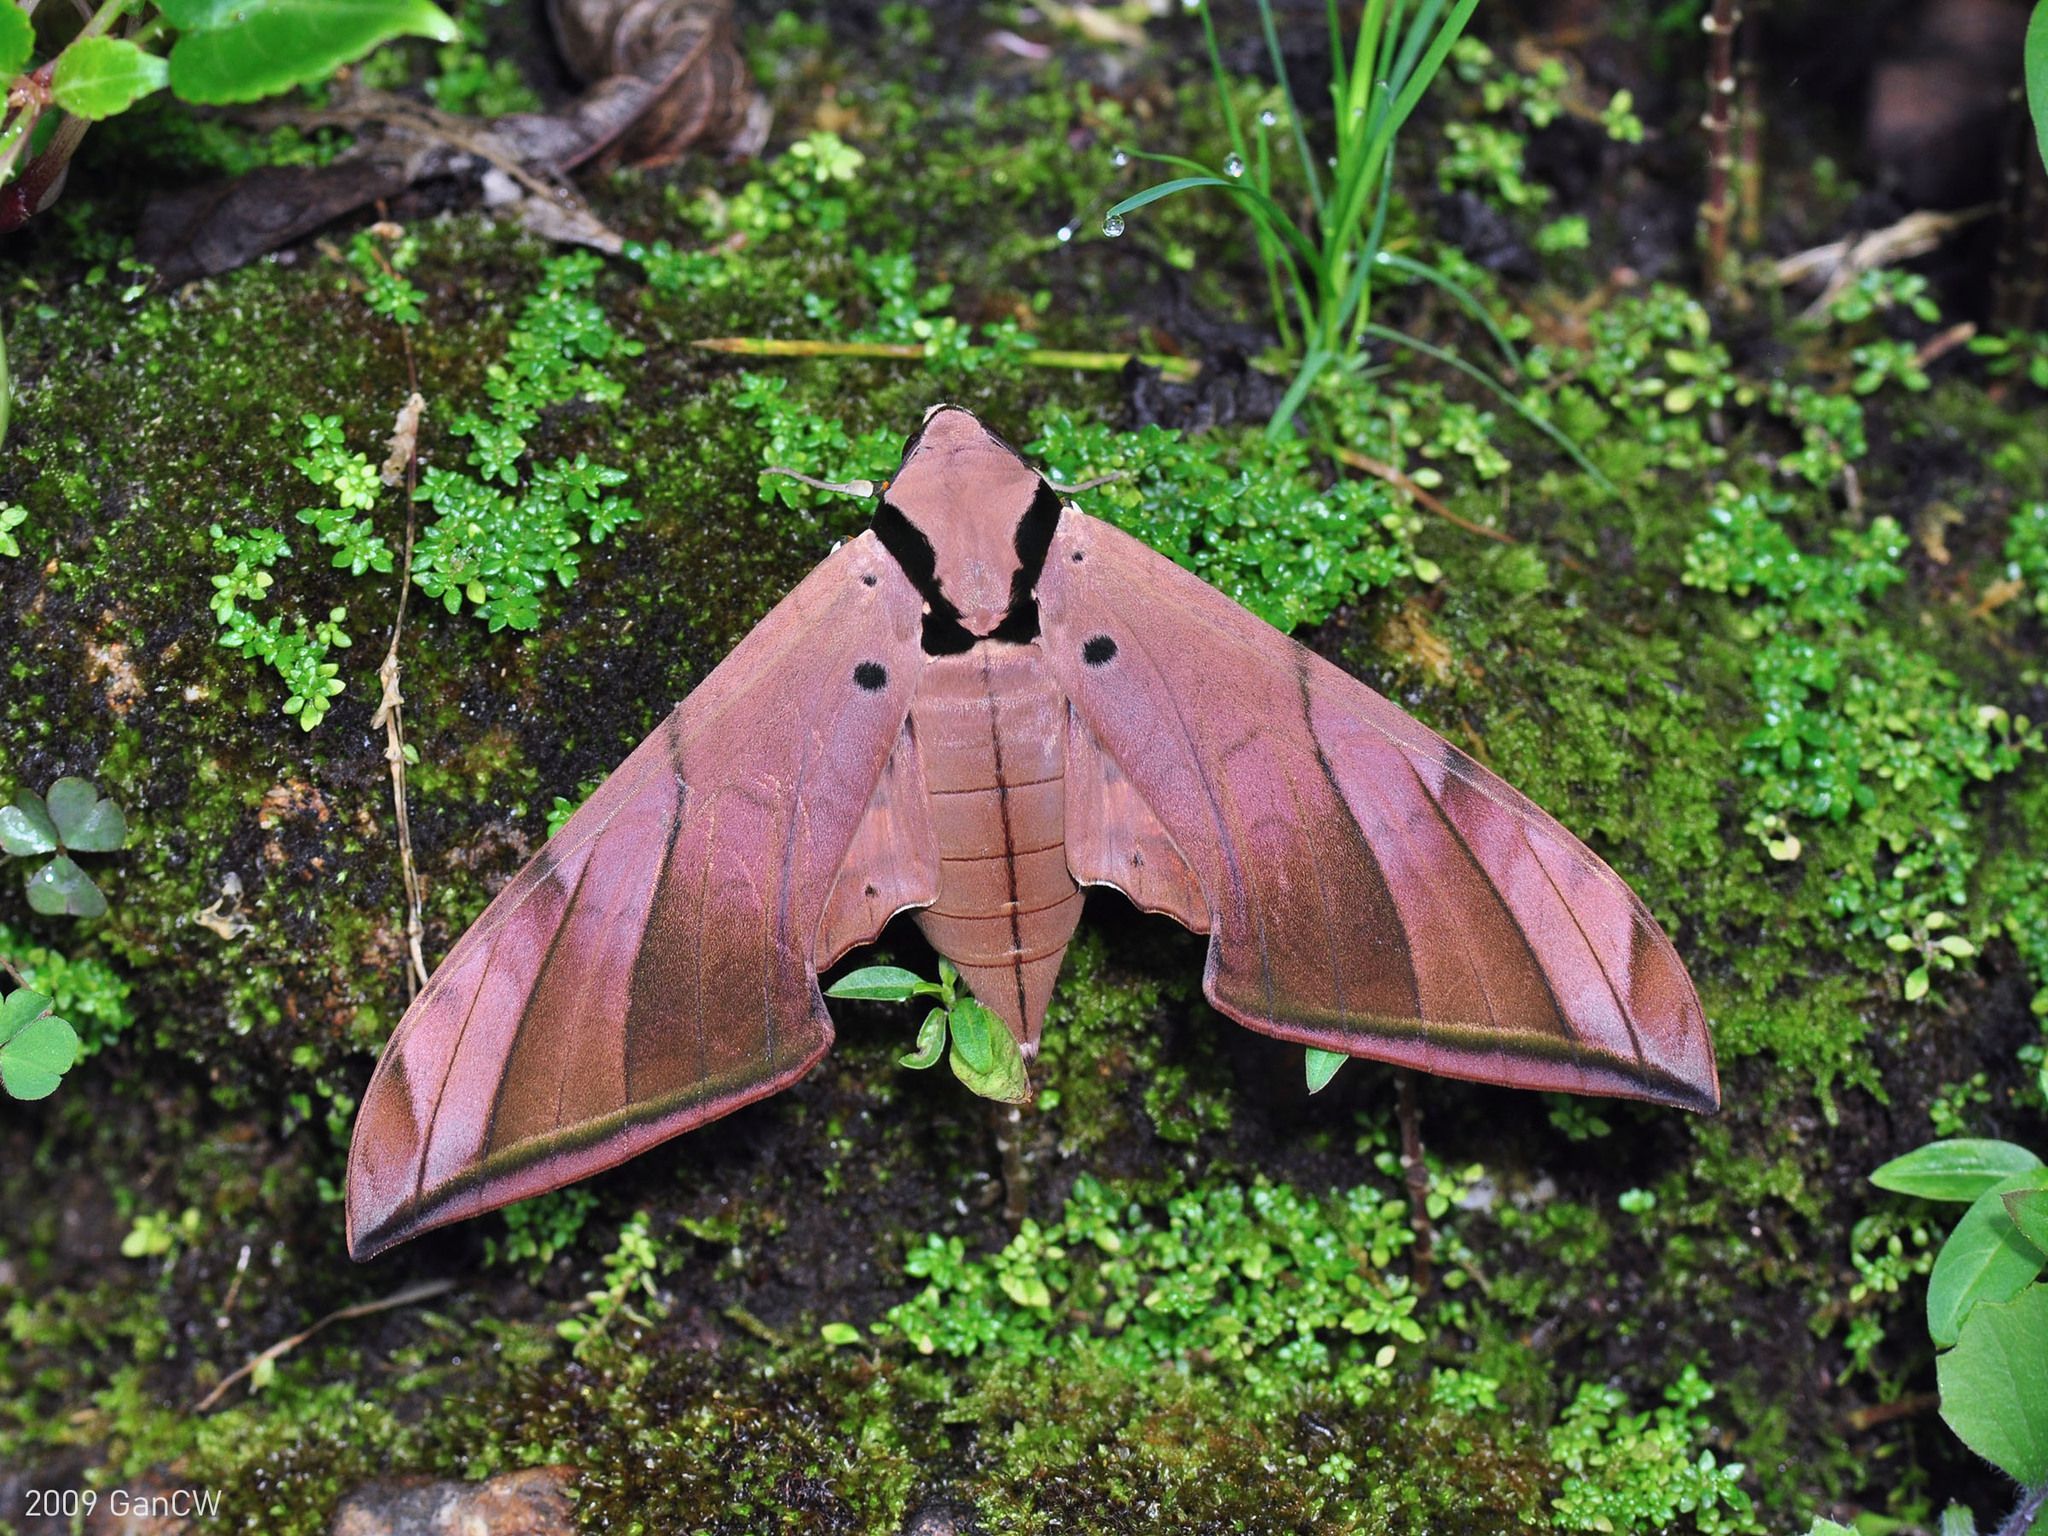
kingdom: Animalia
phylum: Arthropoda
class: Insecta
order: Lepidoptera
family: Sphingidae
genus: Ambulyx
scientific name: Ambulyx pryeri
